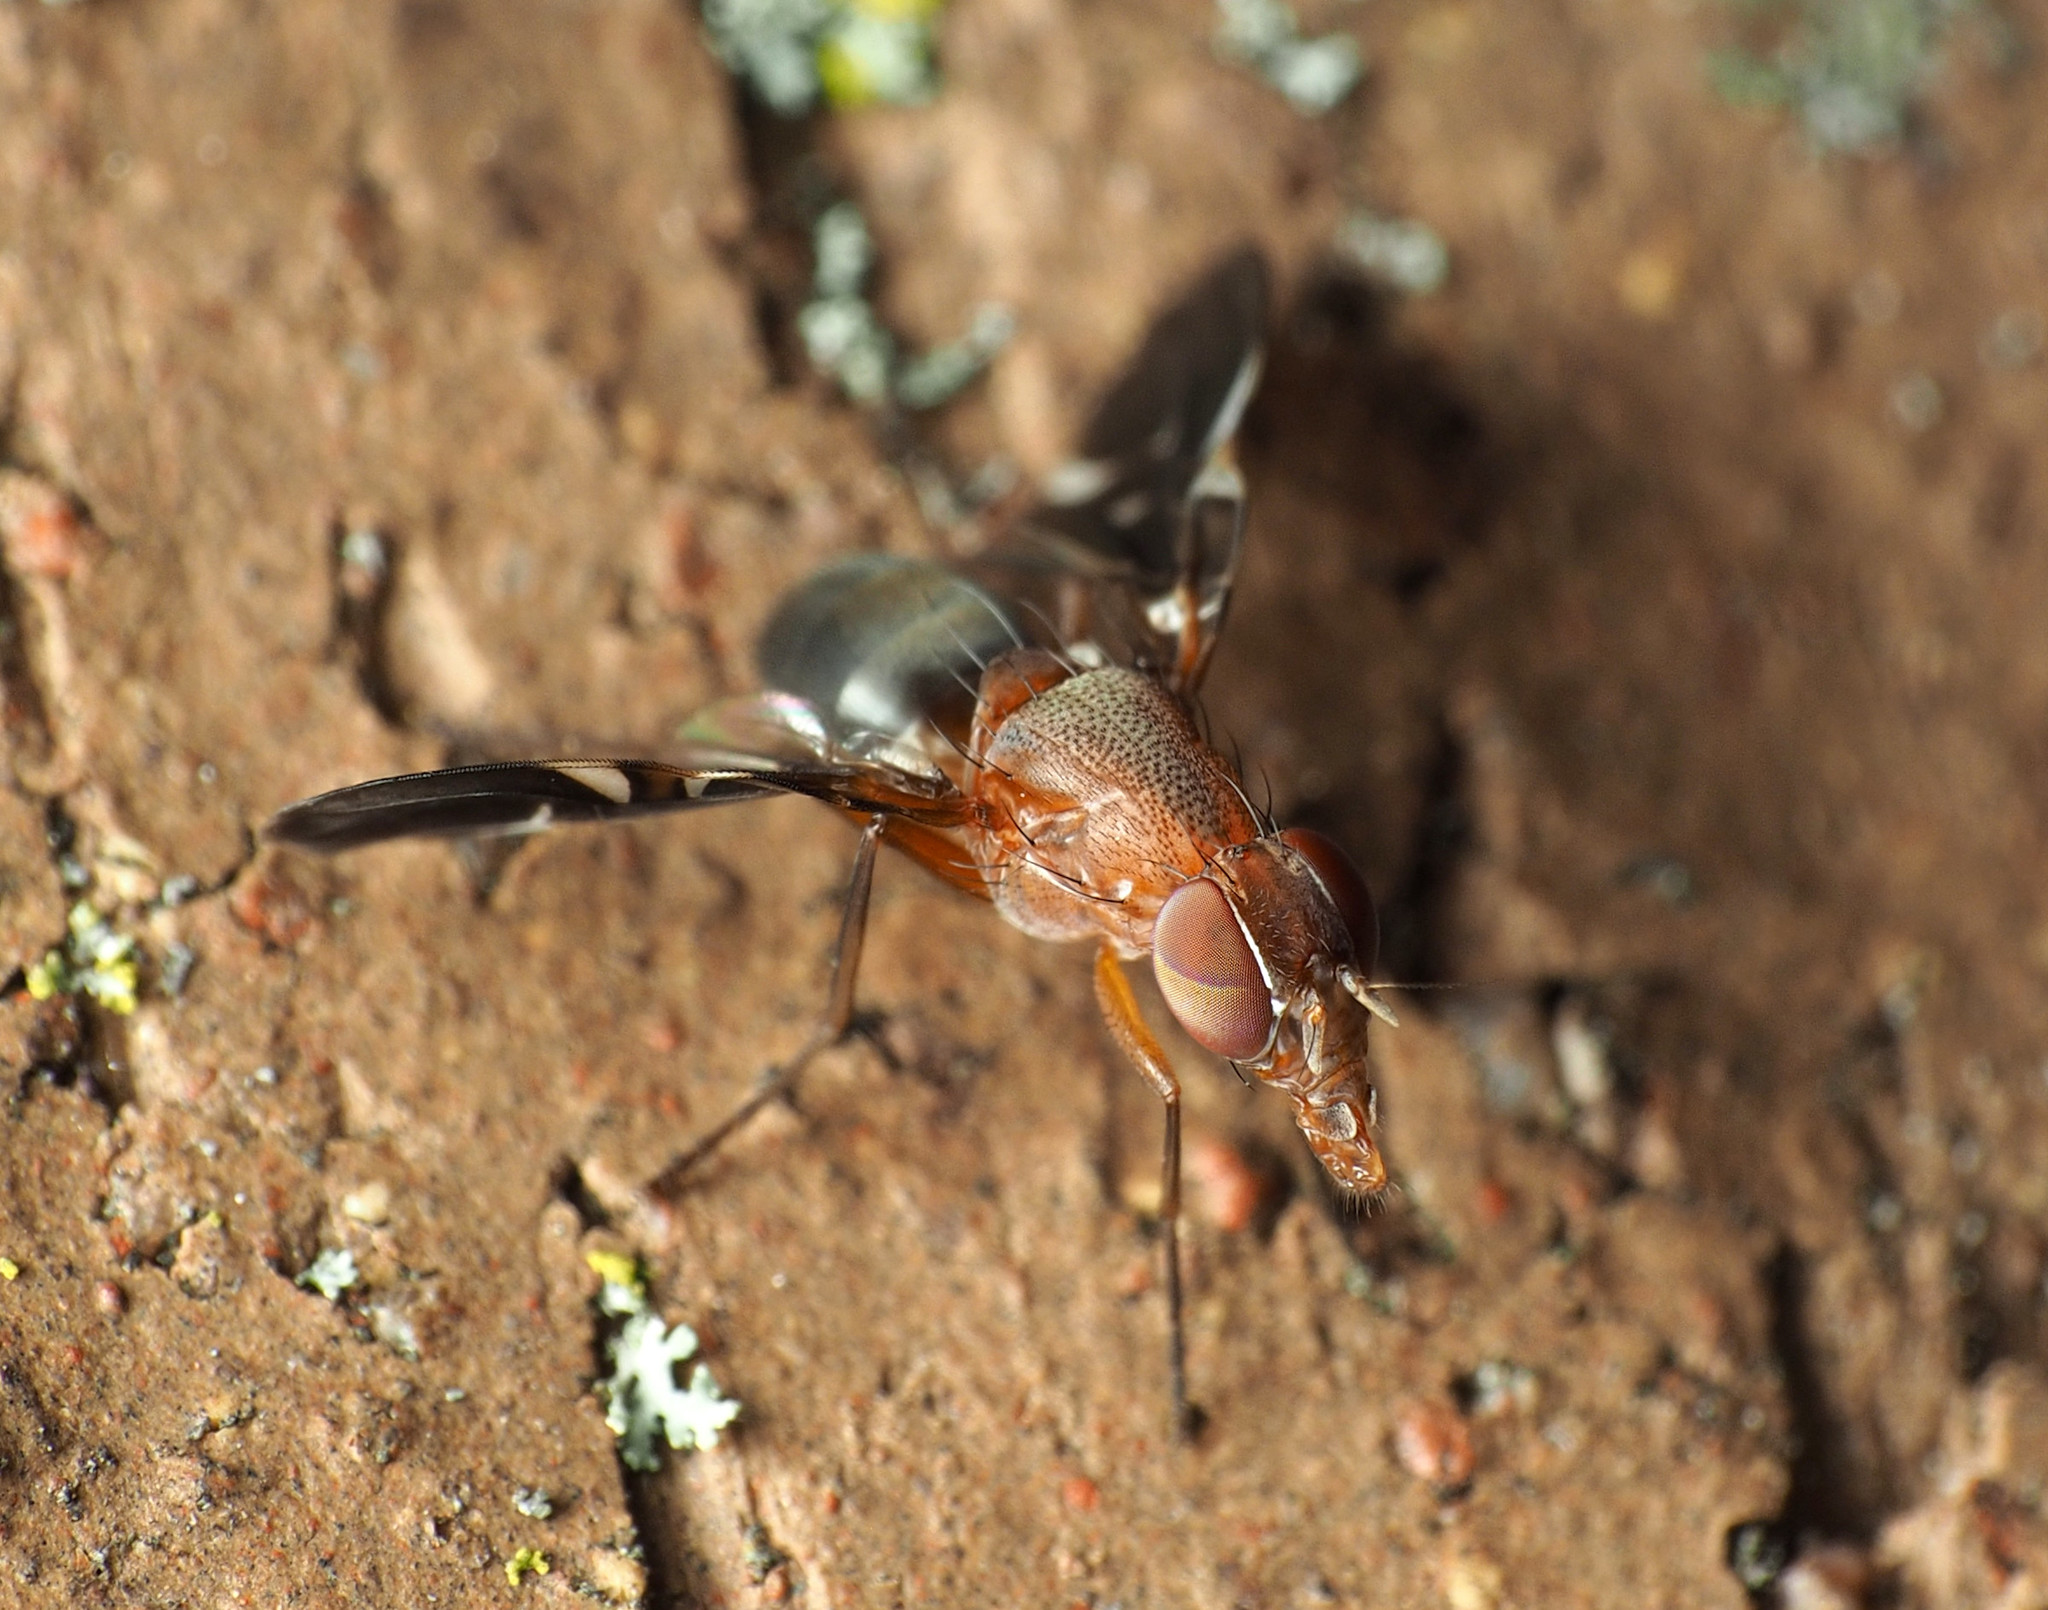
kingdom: Animalia
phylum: Arthropoda
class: Insecta
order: Diptera
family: Ulidiidae
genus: Delphinia
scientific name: Delphinia picta
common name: Common picture-winged fly
